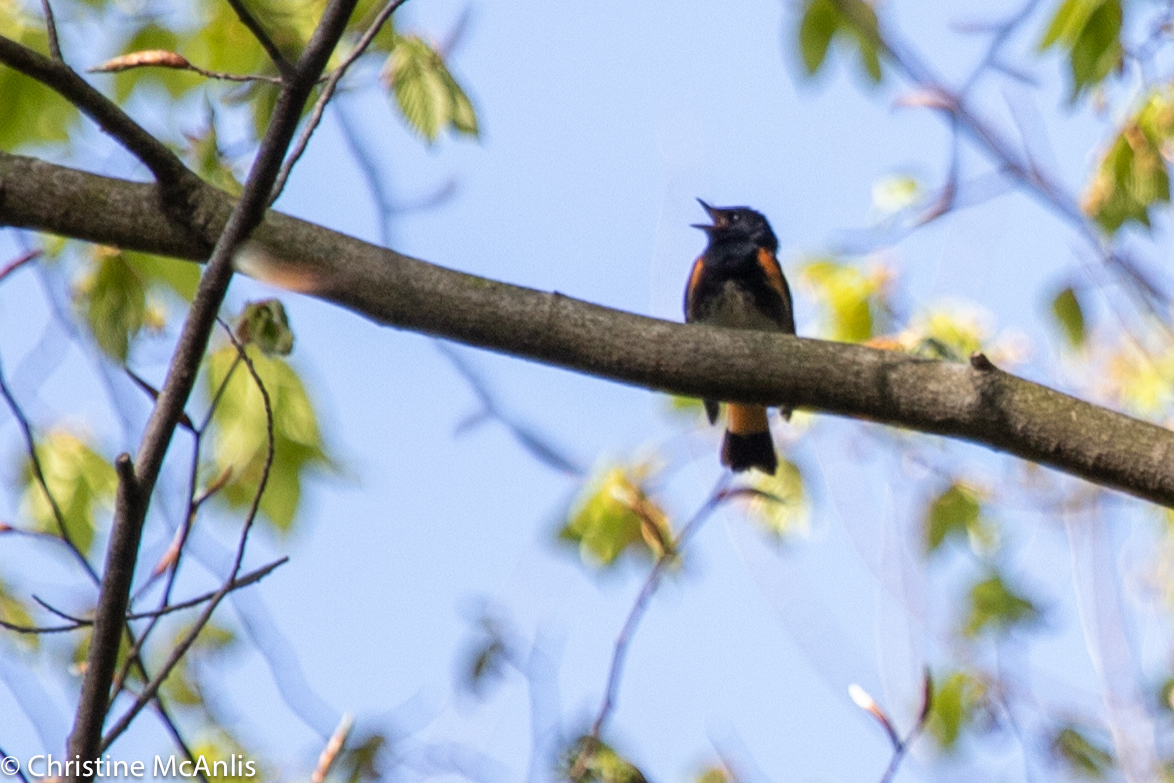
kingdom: Animalia
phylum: Chordata
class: Aves
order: Passeriformes
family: Parulidae
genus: Setophaga
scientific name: Setophaga ruticilla
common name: American redstart
